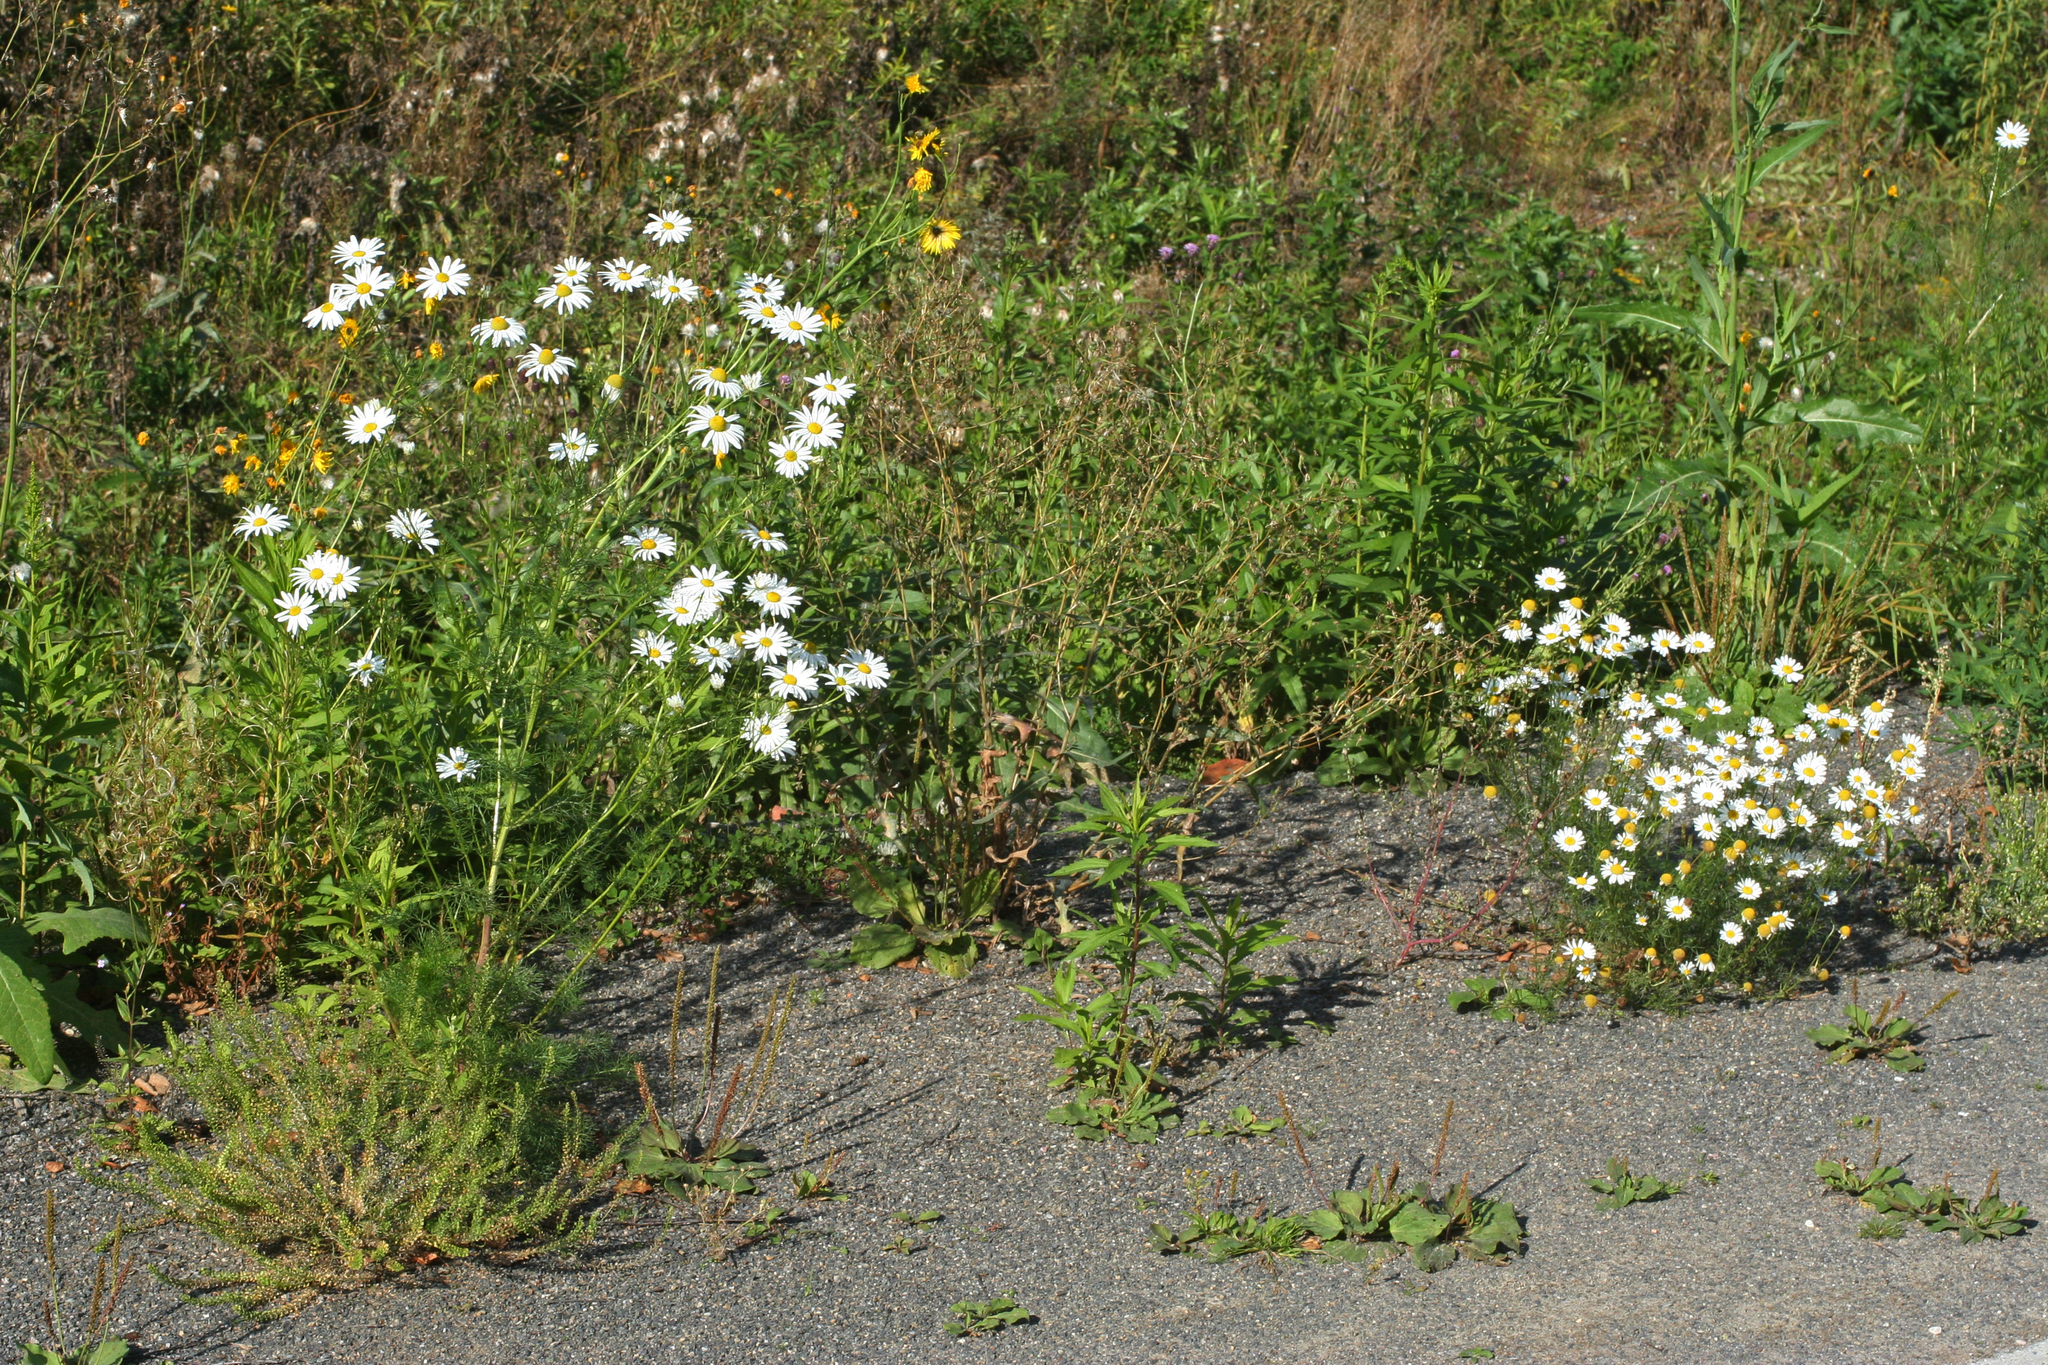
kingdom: Plantae
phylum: Tracheophyta
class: Magnoliopsida
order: Asterales
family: Asteraceae
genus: Tripleurospermum
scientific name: Tripleurospermum inodorum
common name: Scentless mayweed
